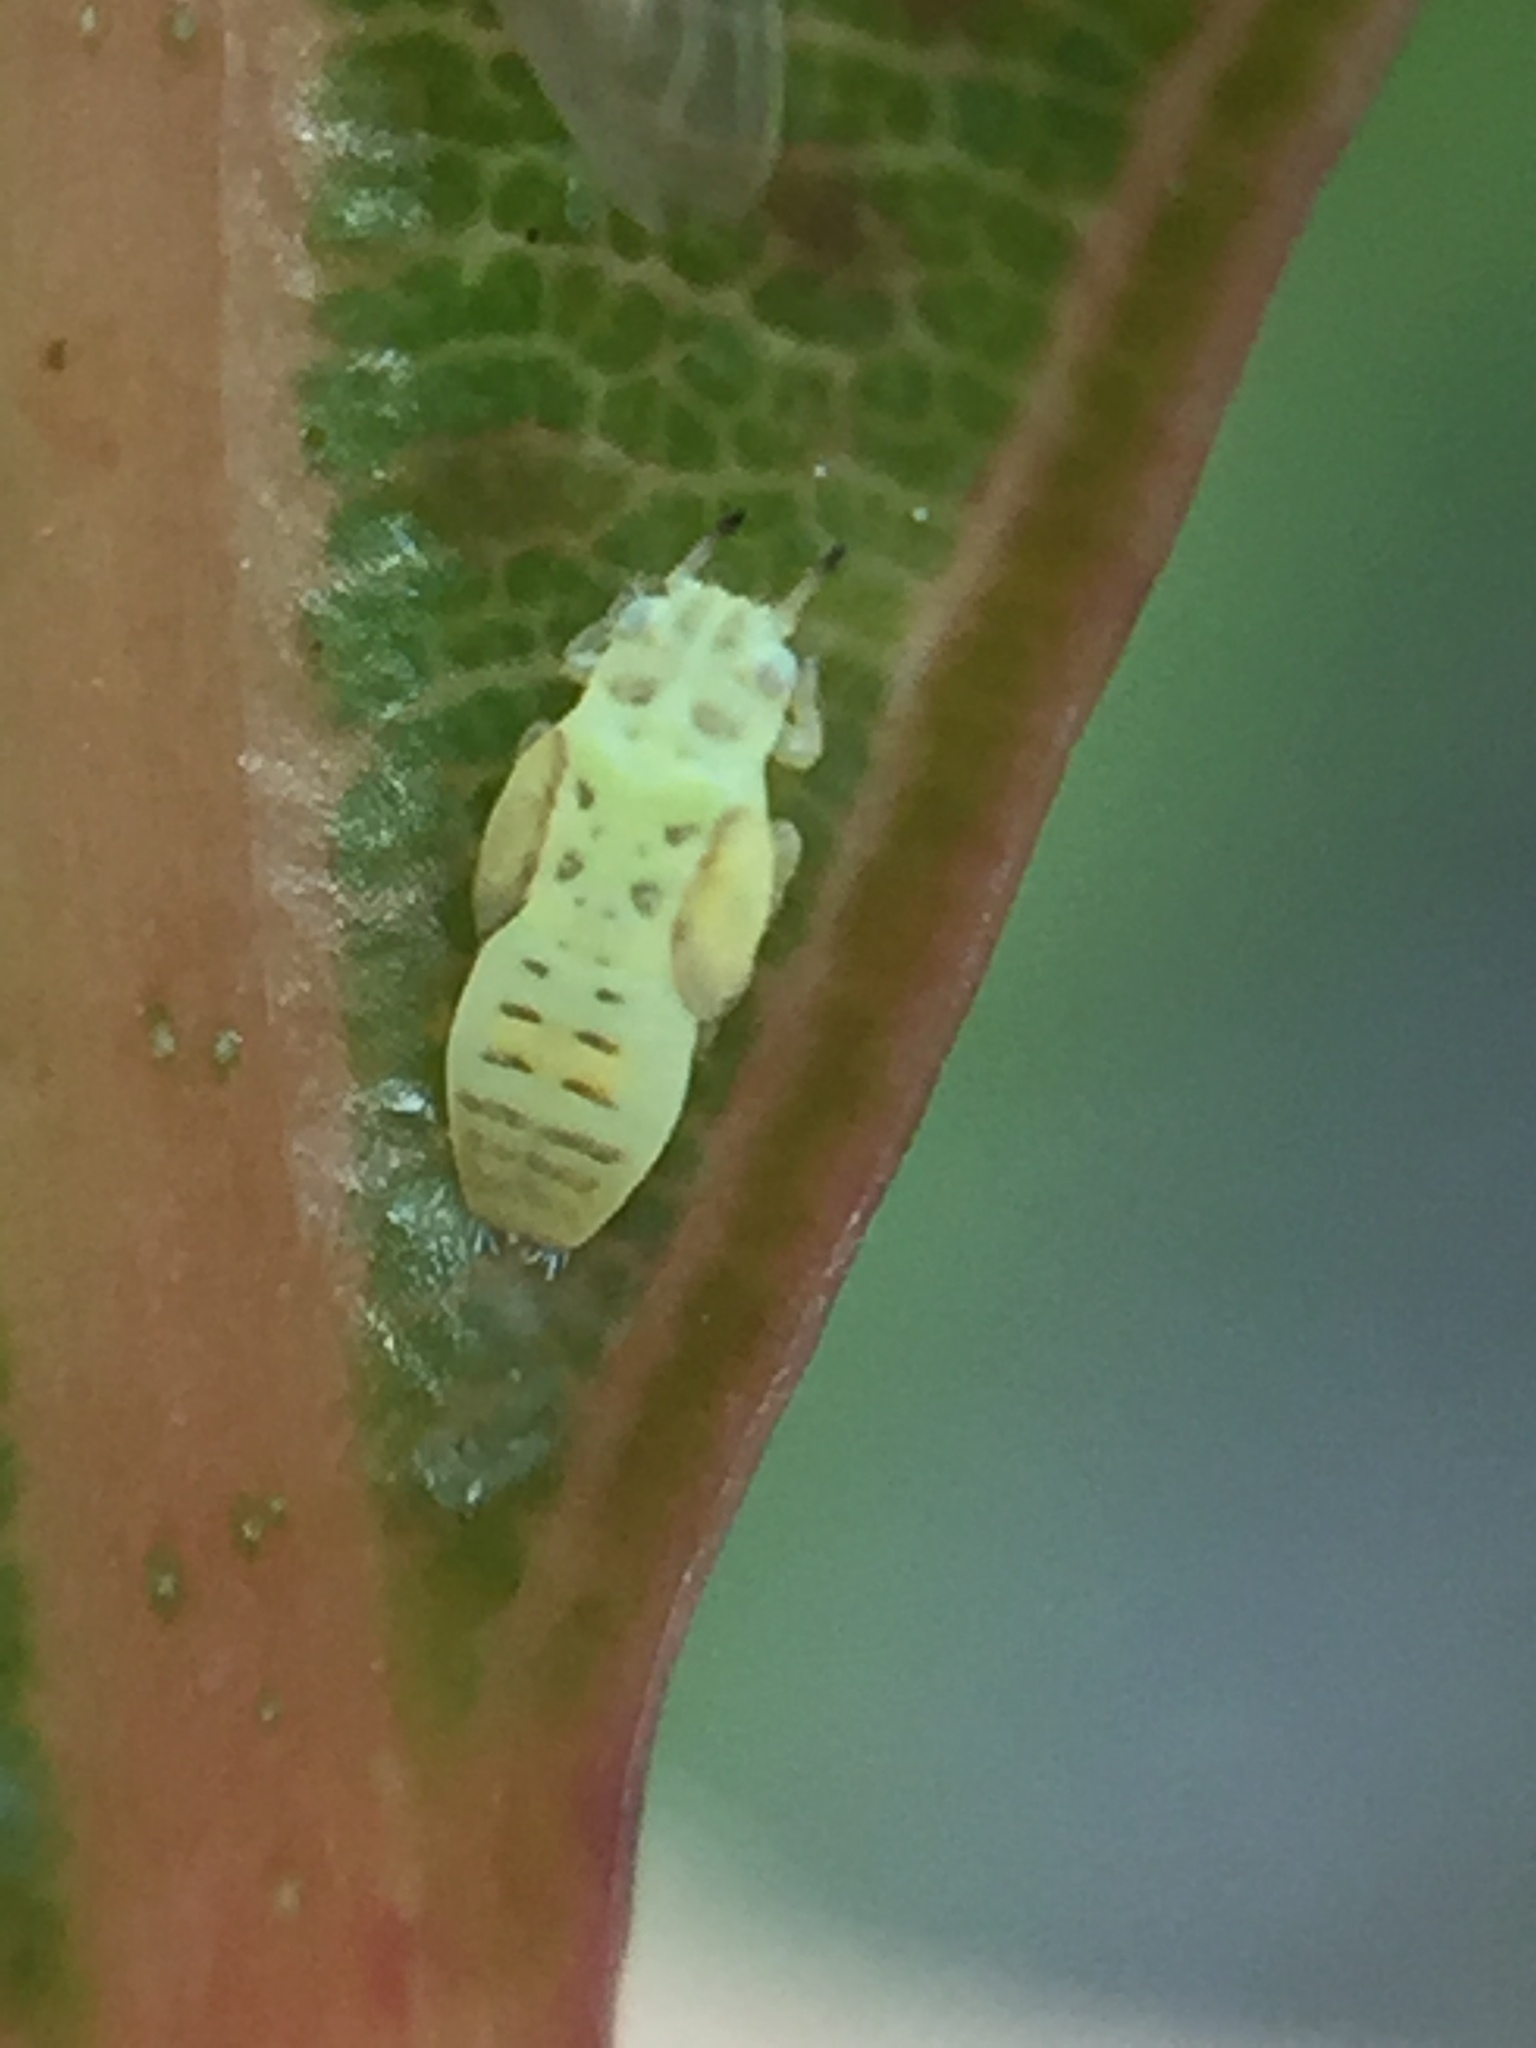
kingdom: Animalia
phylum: Arthropoda
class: Insecta
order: Hemiptera
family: Aphalaridae
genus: Cryptoneossa
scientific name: Cryptoneossa triangula
